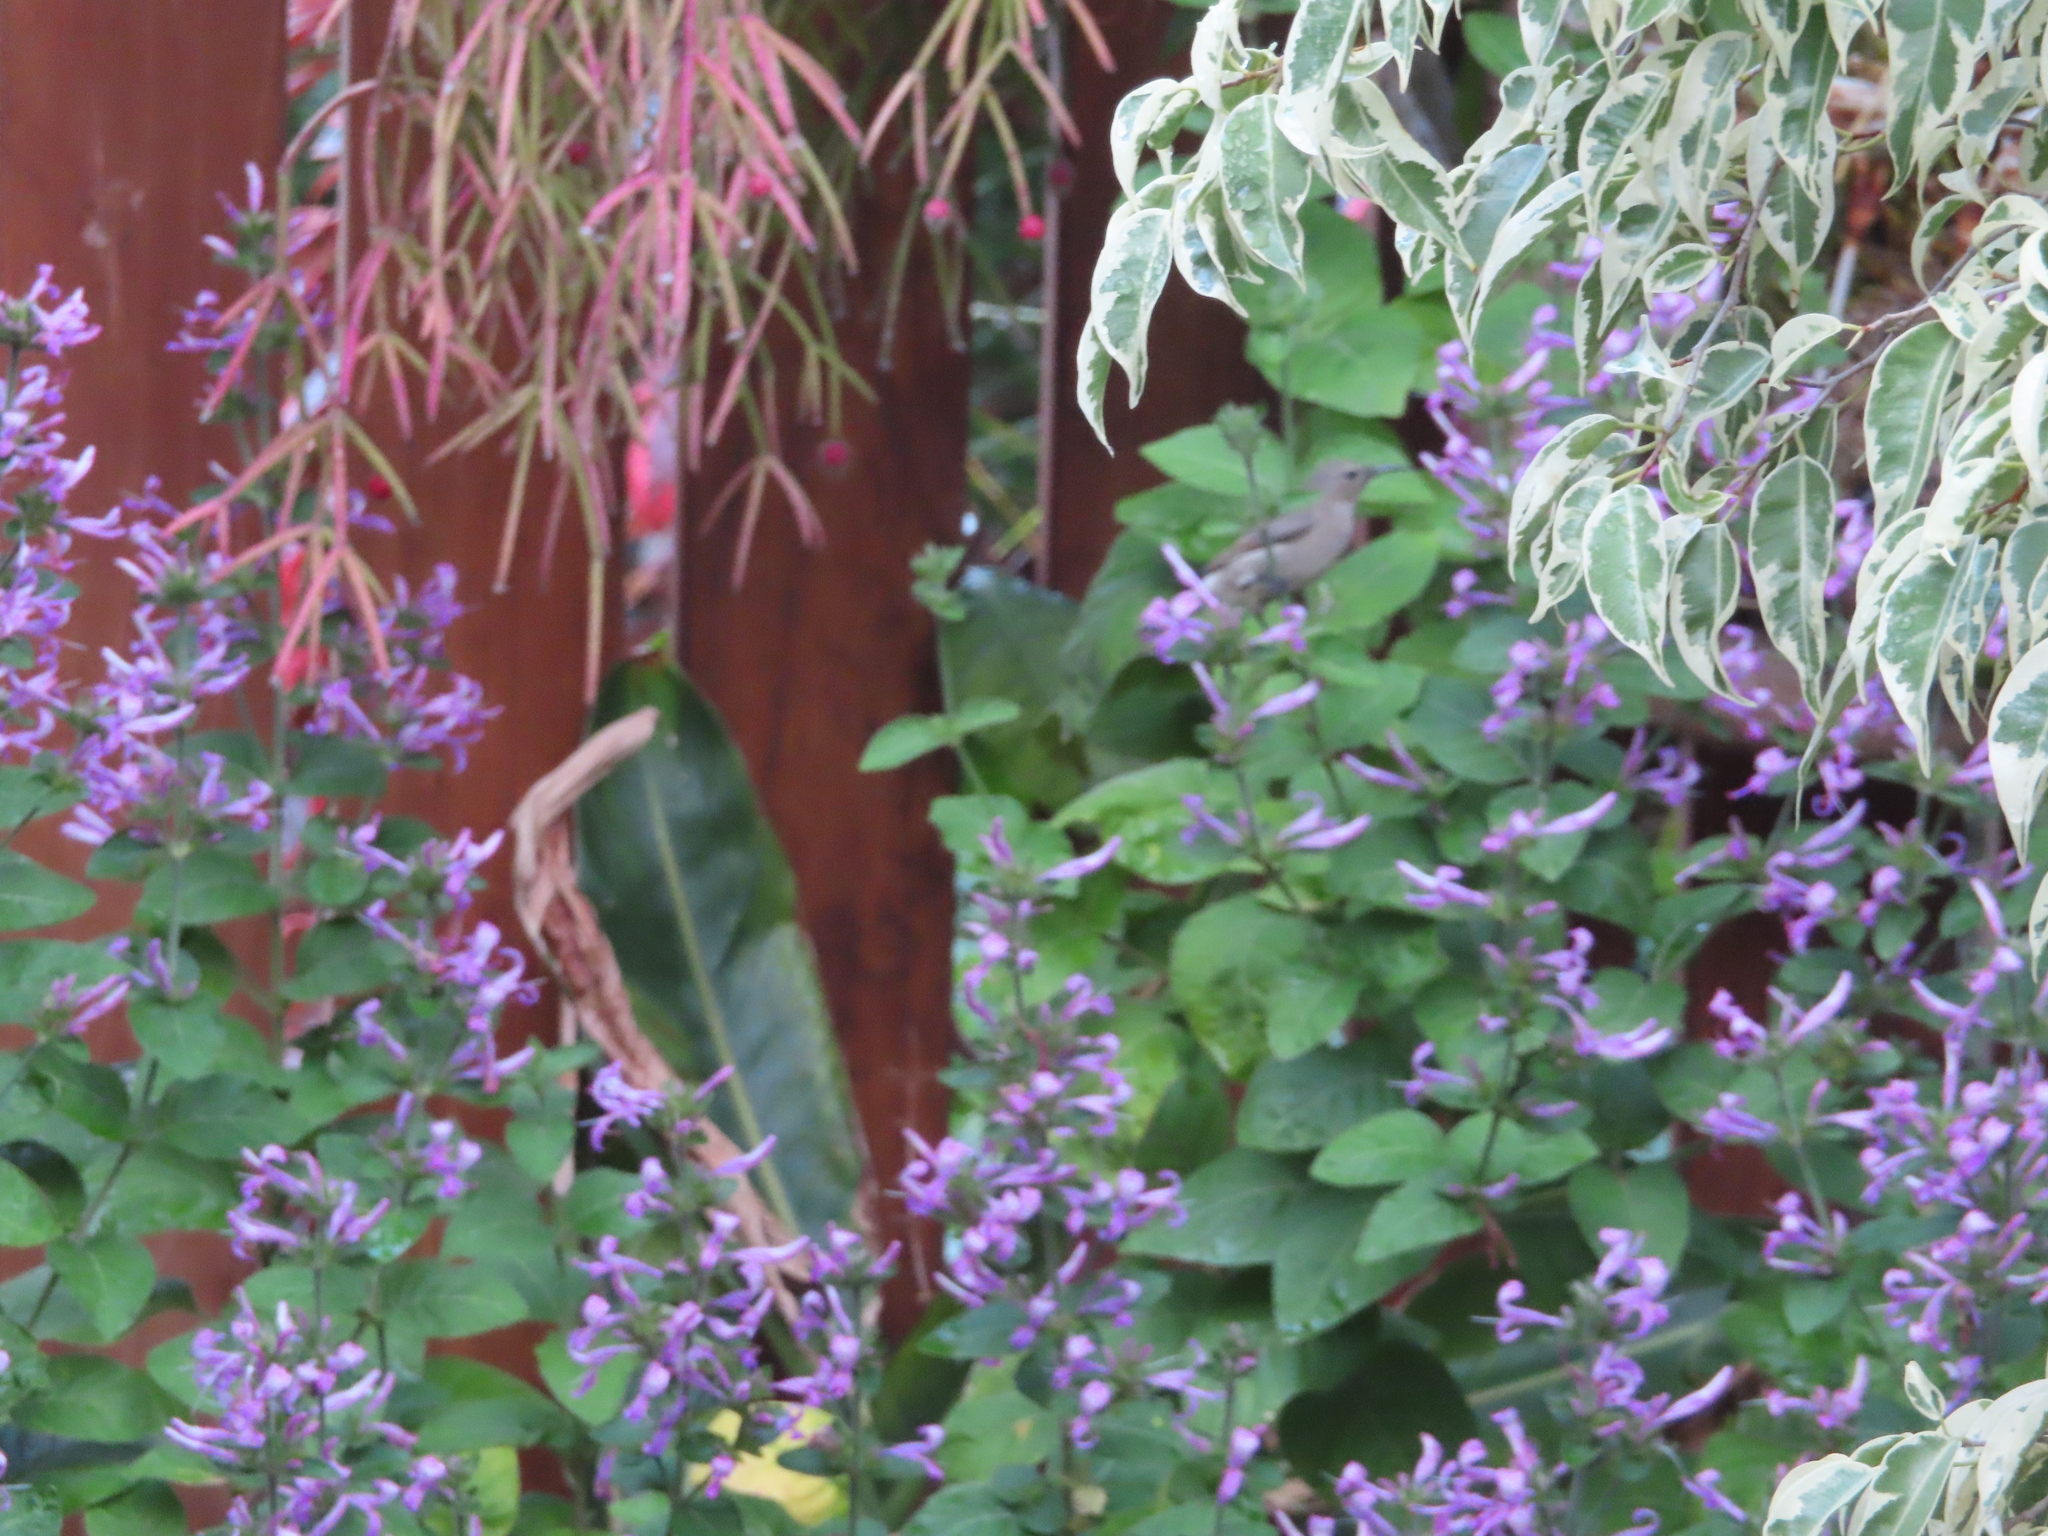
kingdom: Animalia
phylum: Chordata
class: Aves
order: Passeriformes
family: Nectariniidae
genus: Cinnyris
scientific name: Cinnyris chalybeus
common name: Southern double-collared sunbird
